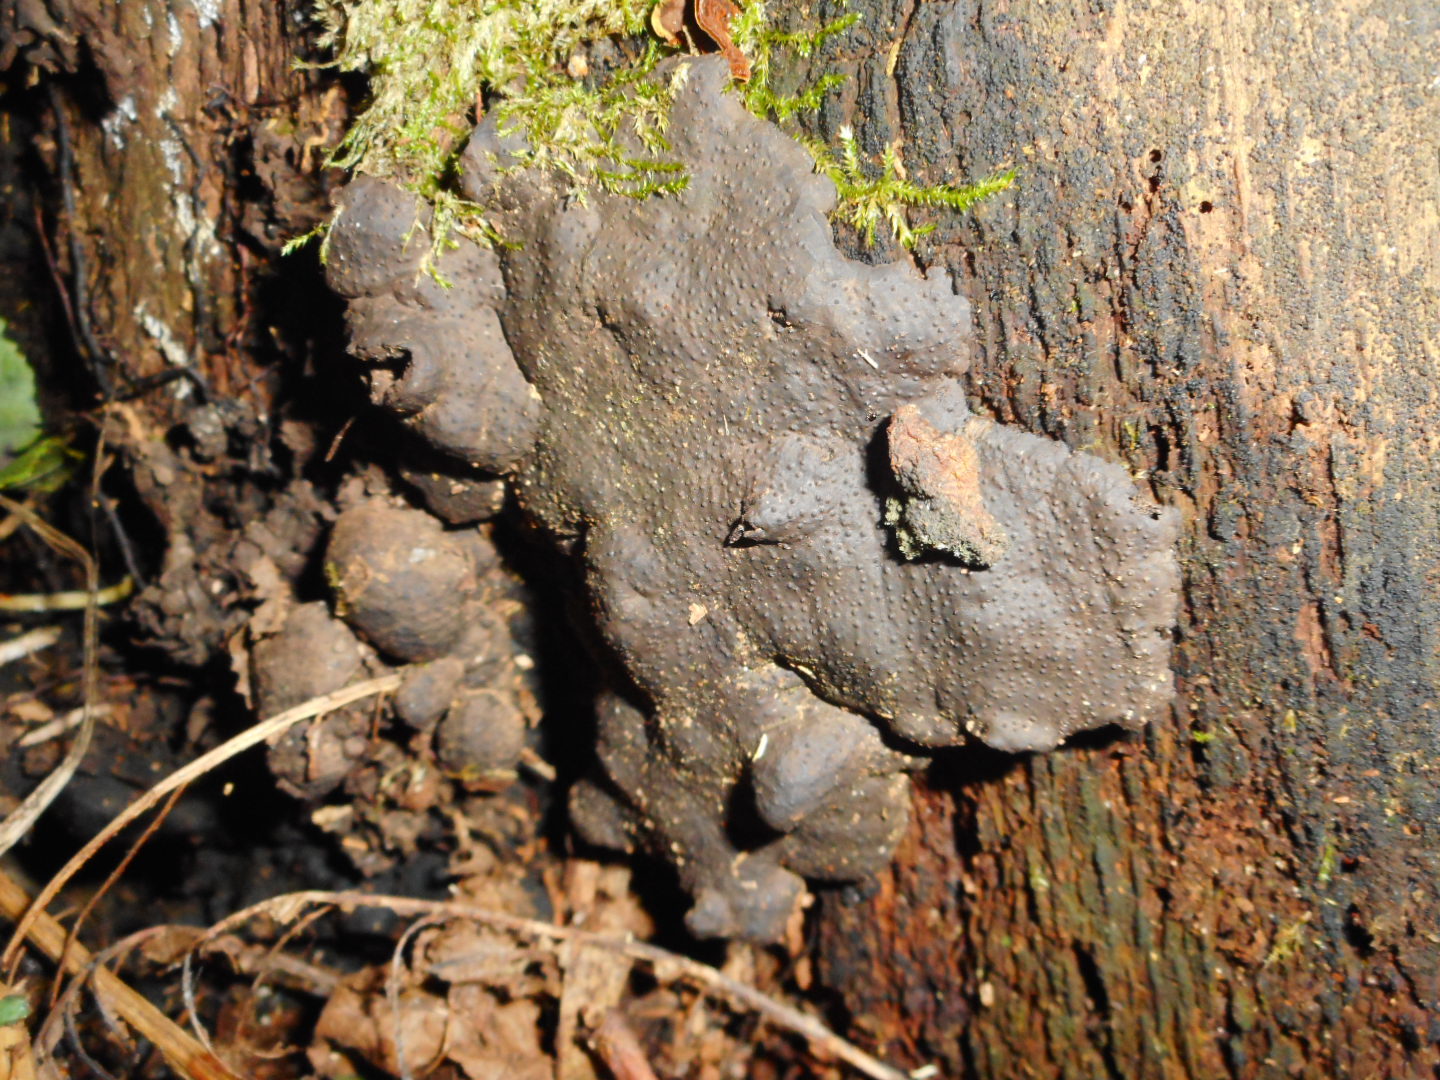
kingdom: Fungi
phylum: Ascomycota
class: Sordariomycetes
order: Xylariales
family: Xylariaceae
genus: Kretzschmaria
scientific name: Kretzschmaria deusta
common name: Brittle cinder
